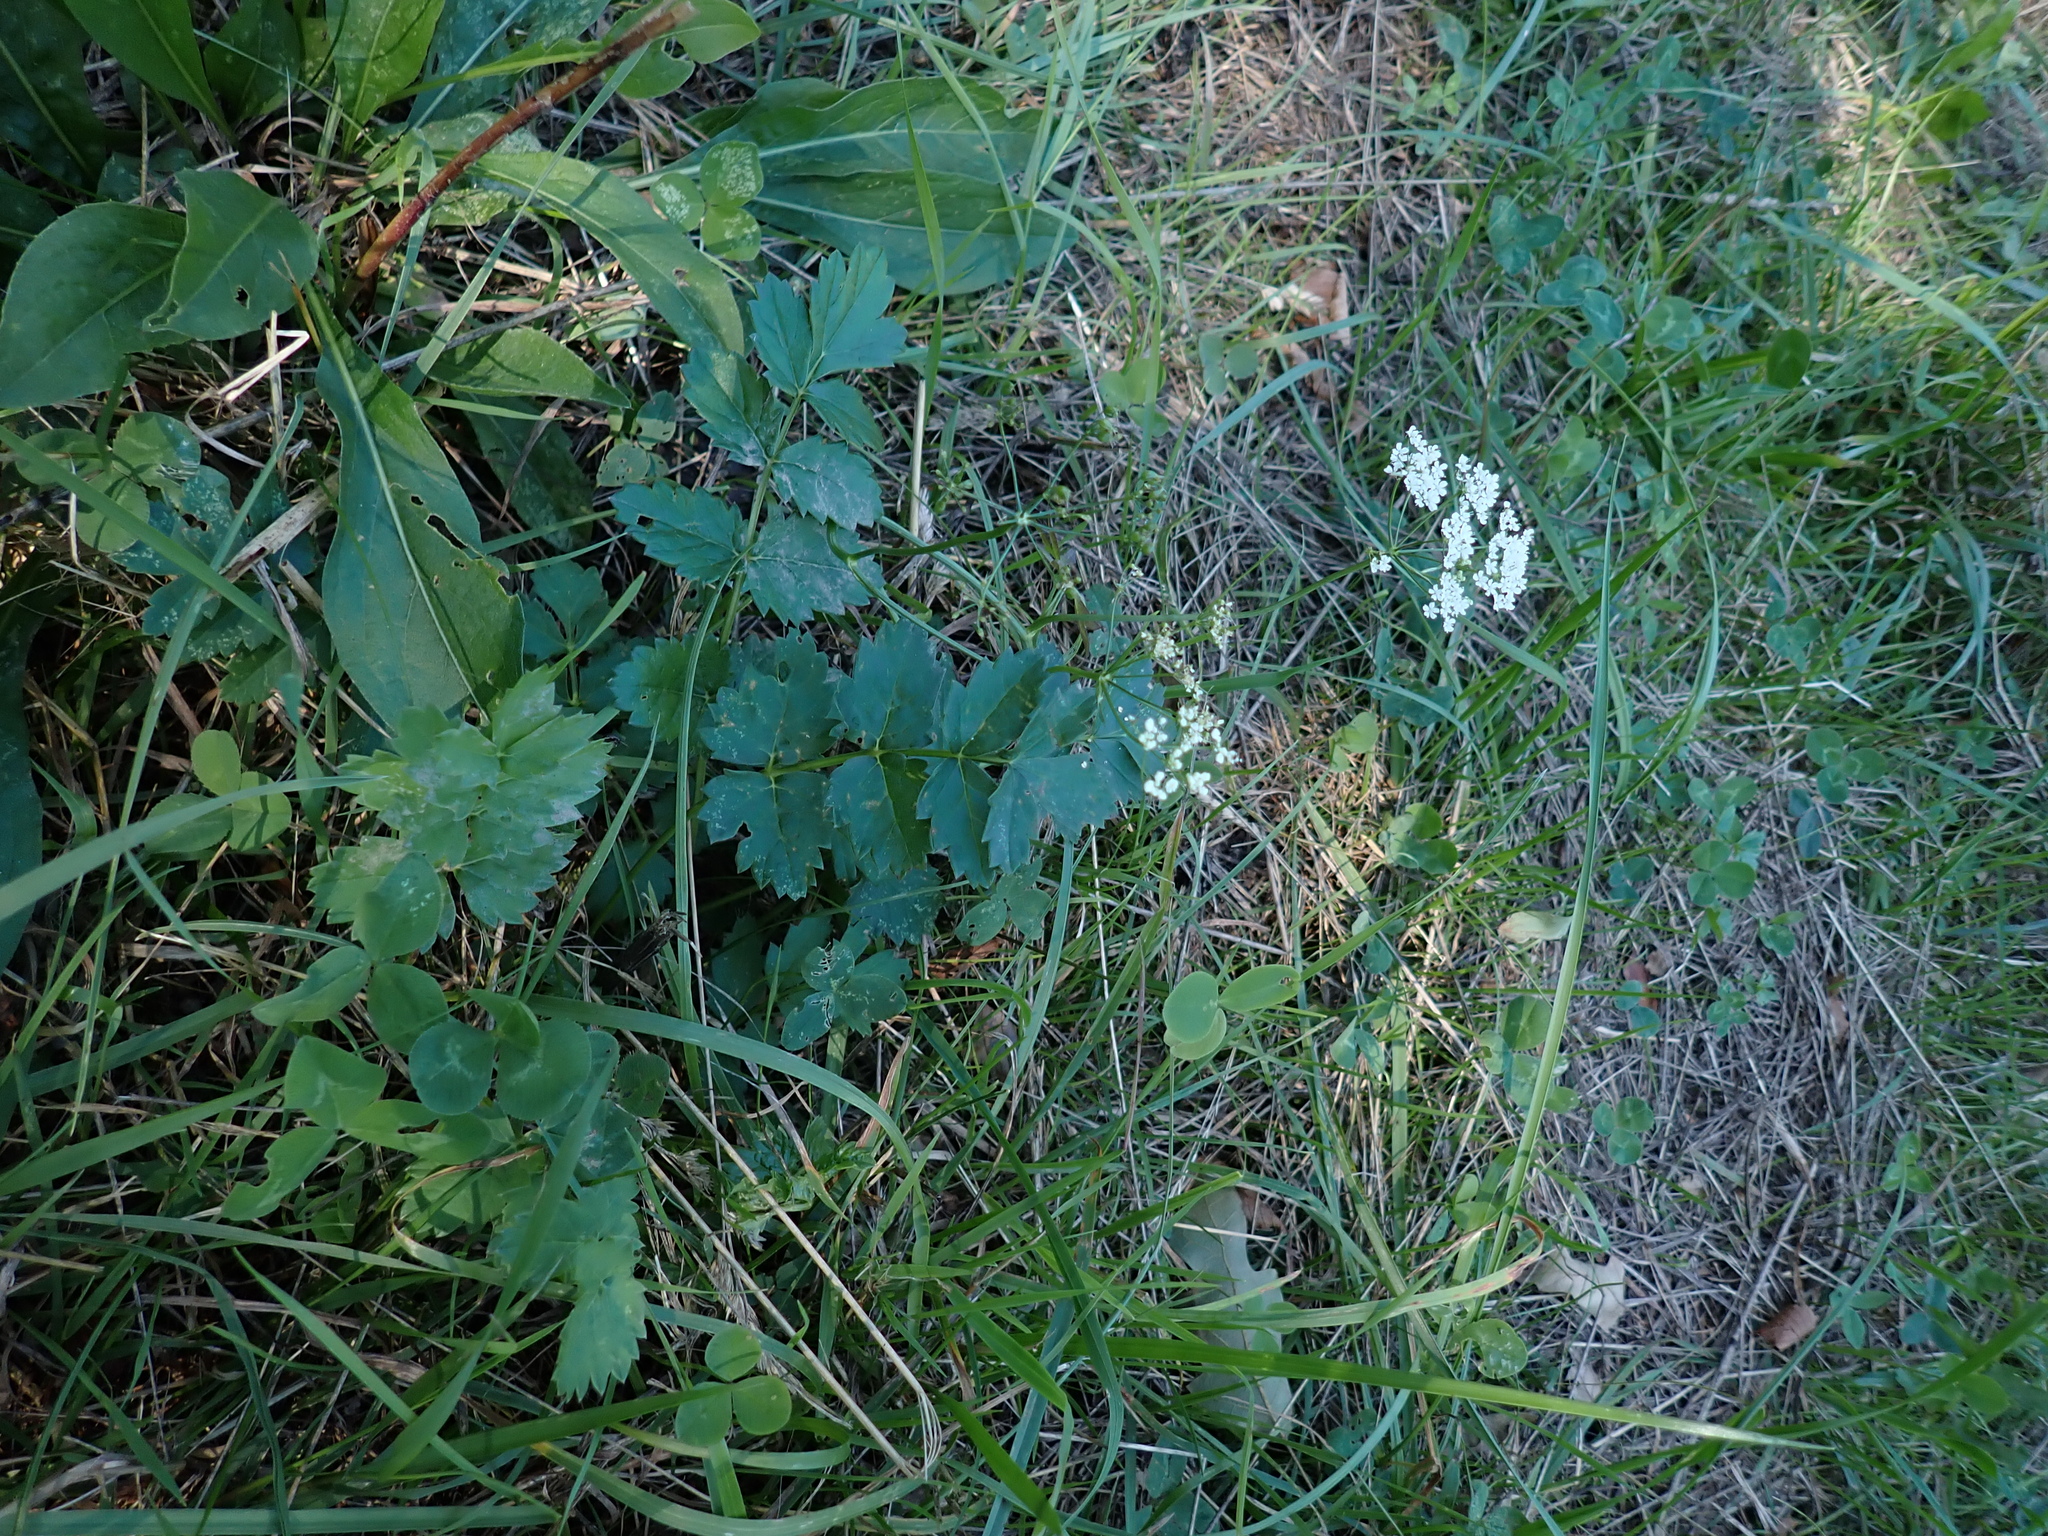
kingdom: Plantae
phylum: Tracheophyta
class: Magnoliopsida
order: Apiales
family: Apiaceae
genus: Pimpinella
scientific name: Pimpinella saxifraga
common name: Burnet-saxifrage
